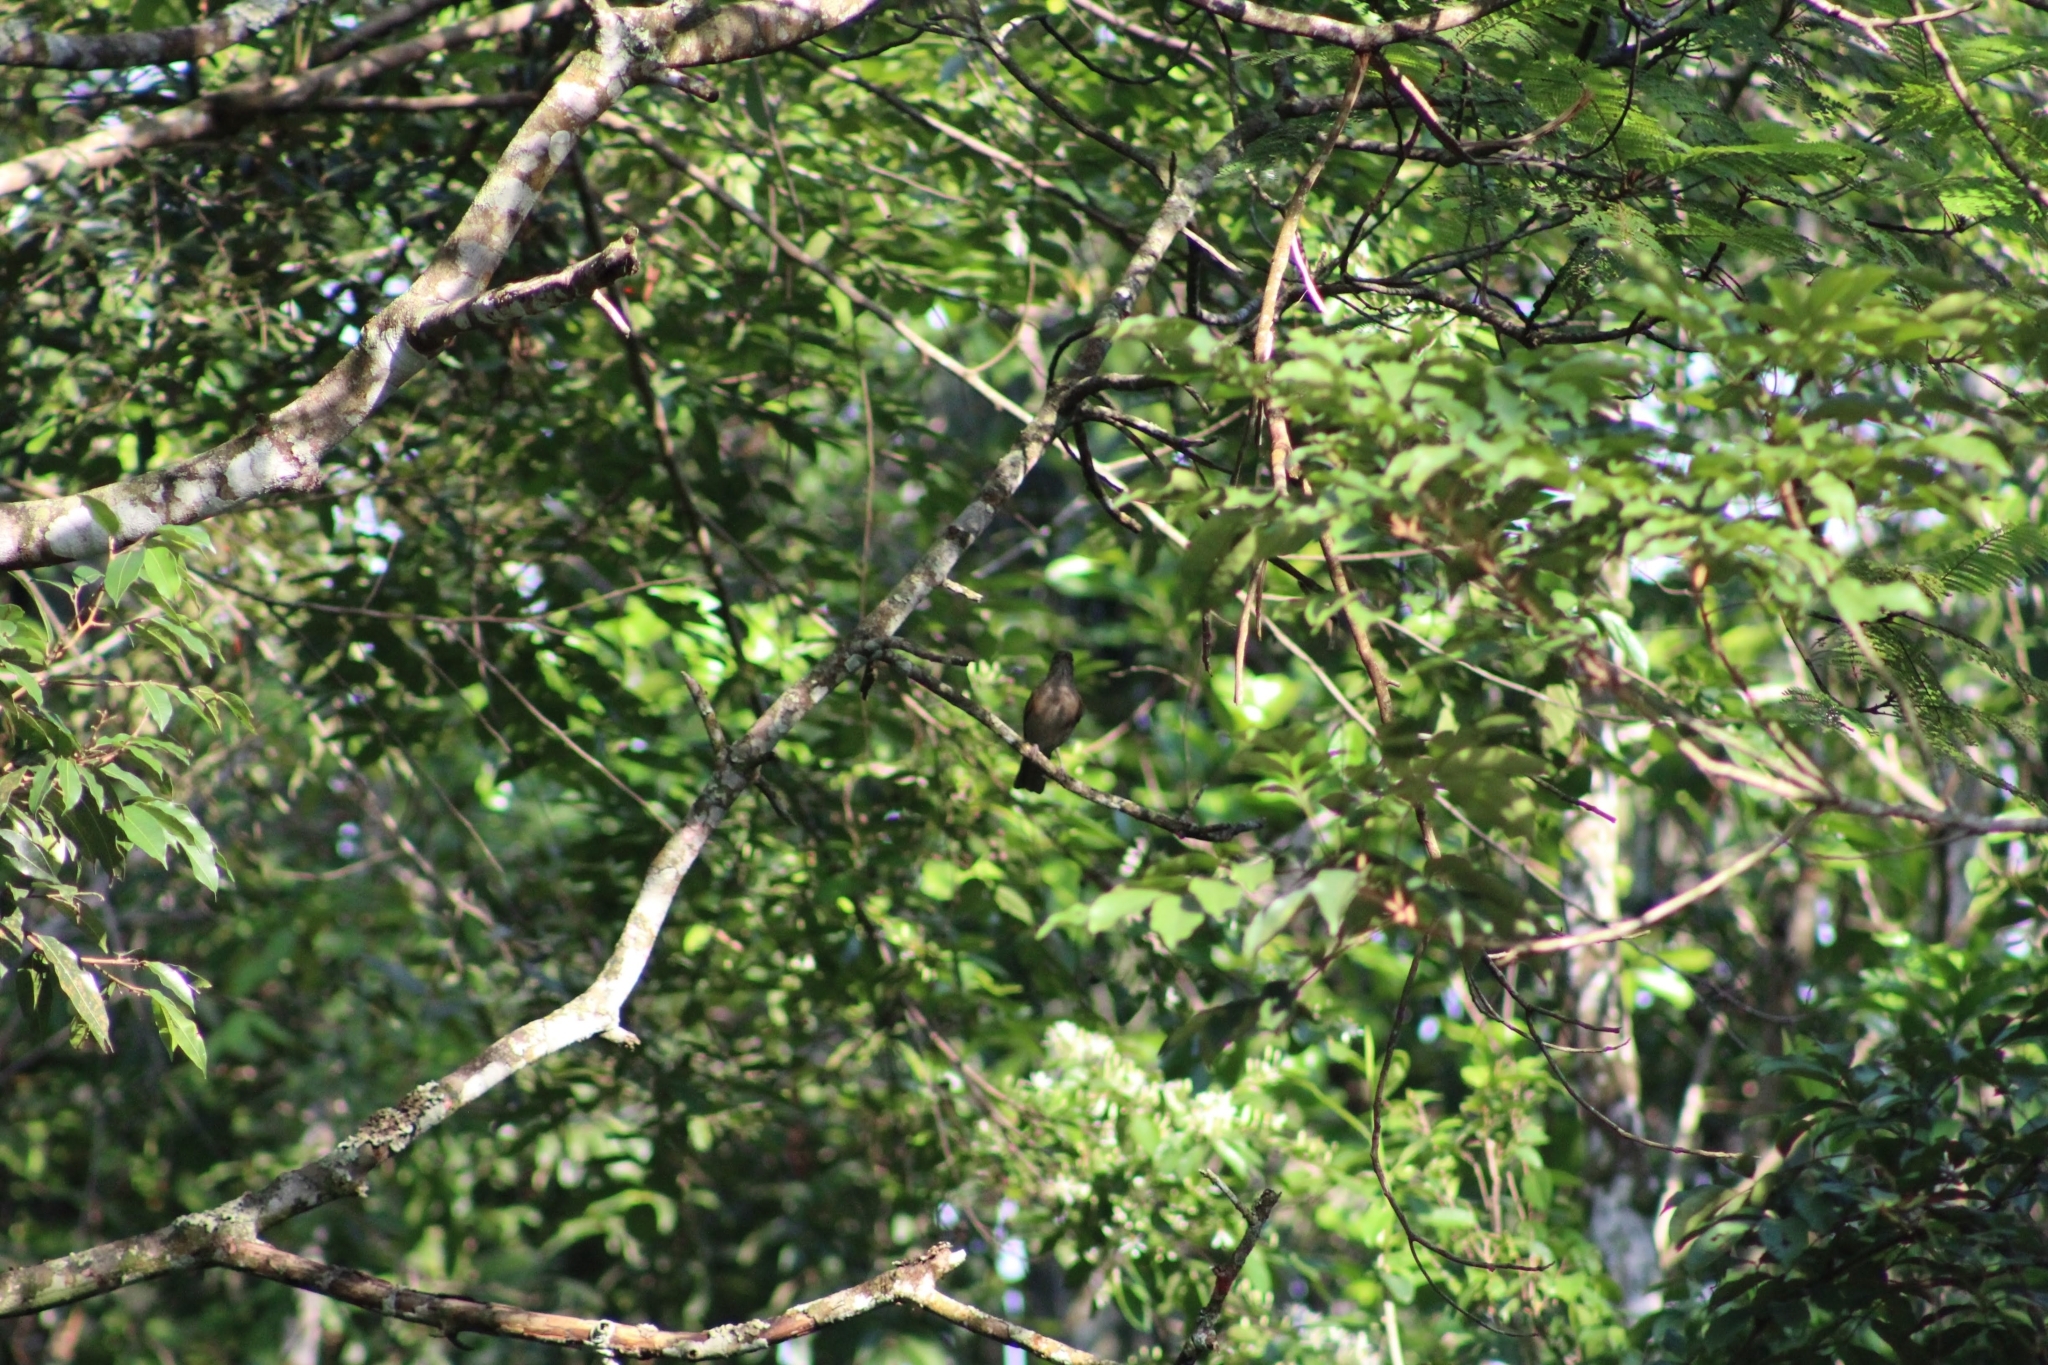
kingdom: Animalia
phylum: Chordata
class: Aves
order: Passeriformes
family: Turdidae
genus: Turdus
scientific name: Turdus leucomelas
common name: Pale-breasted thrush
